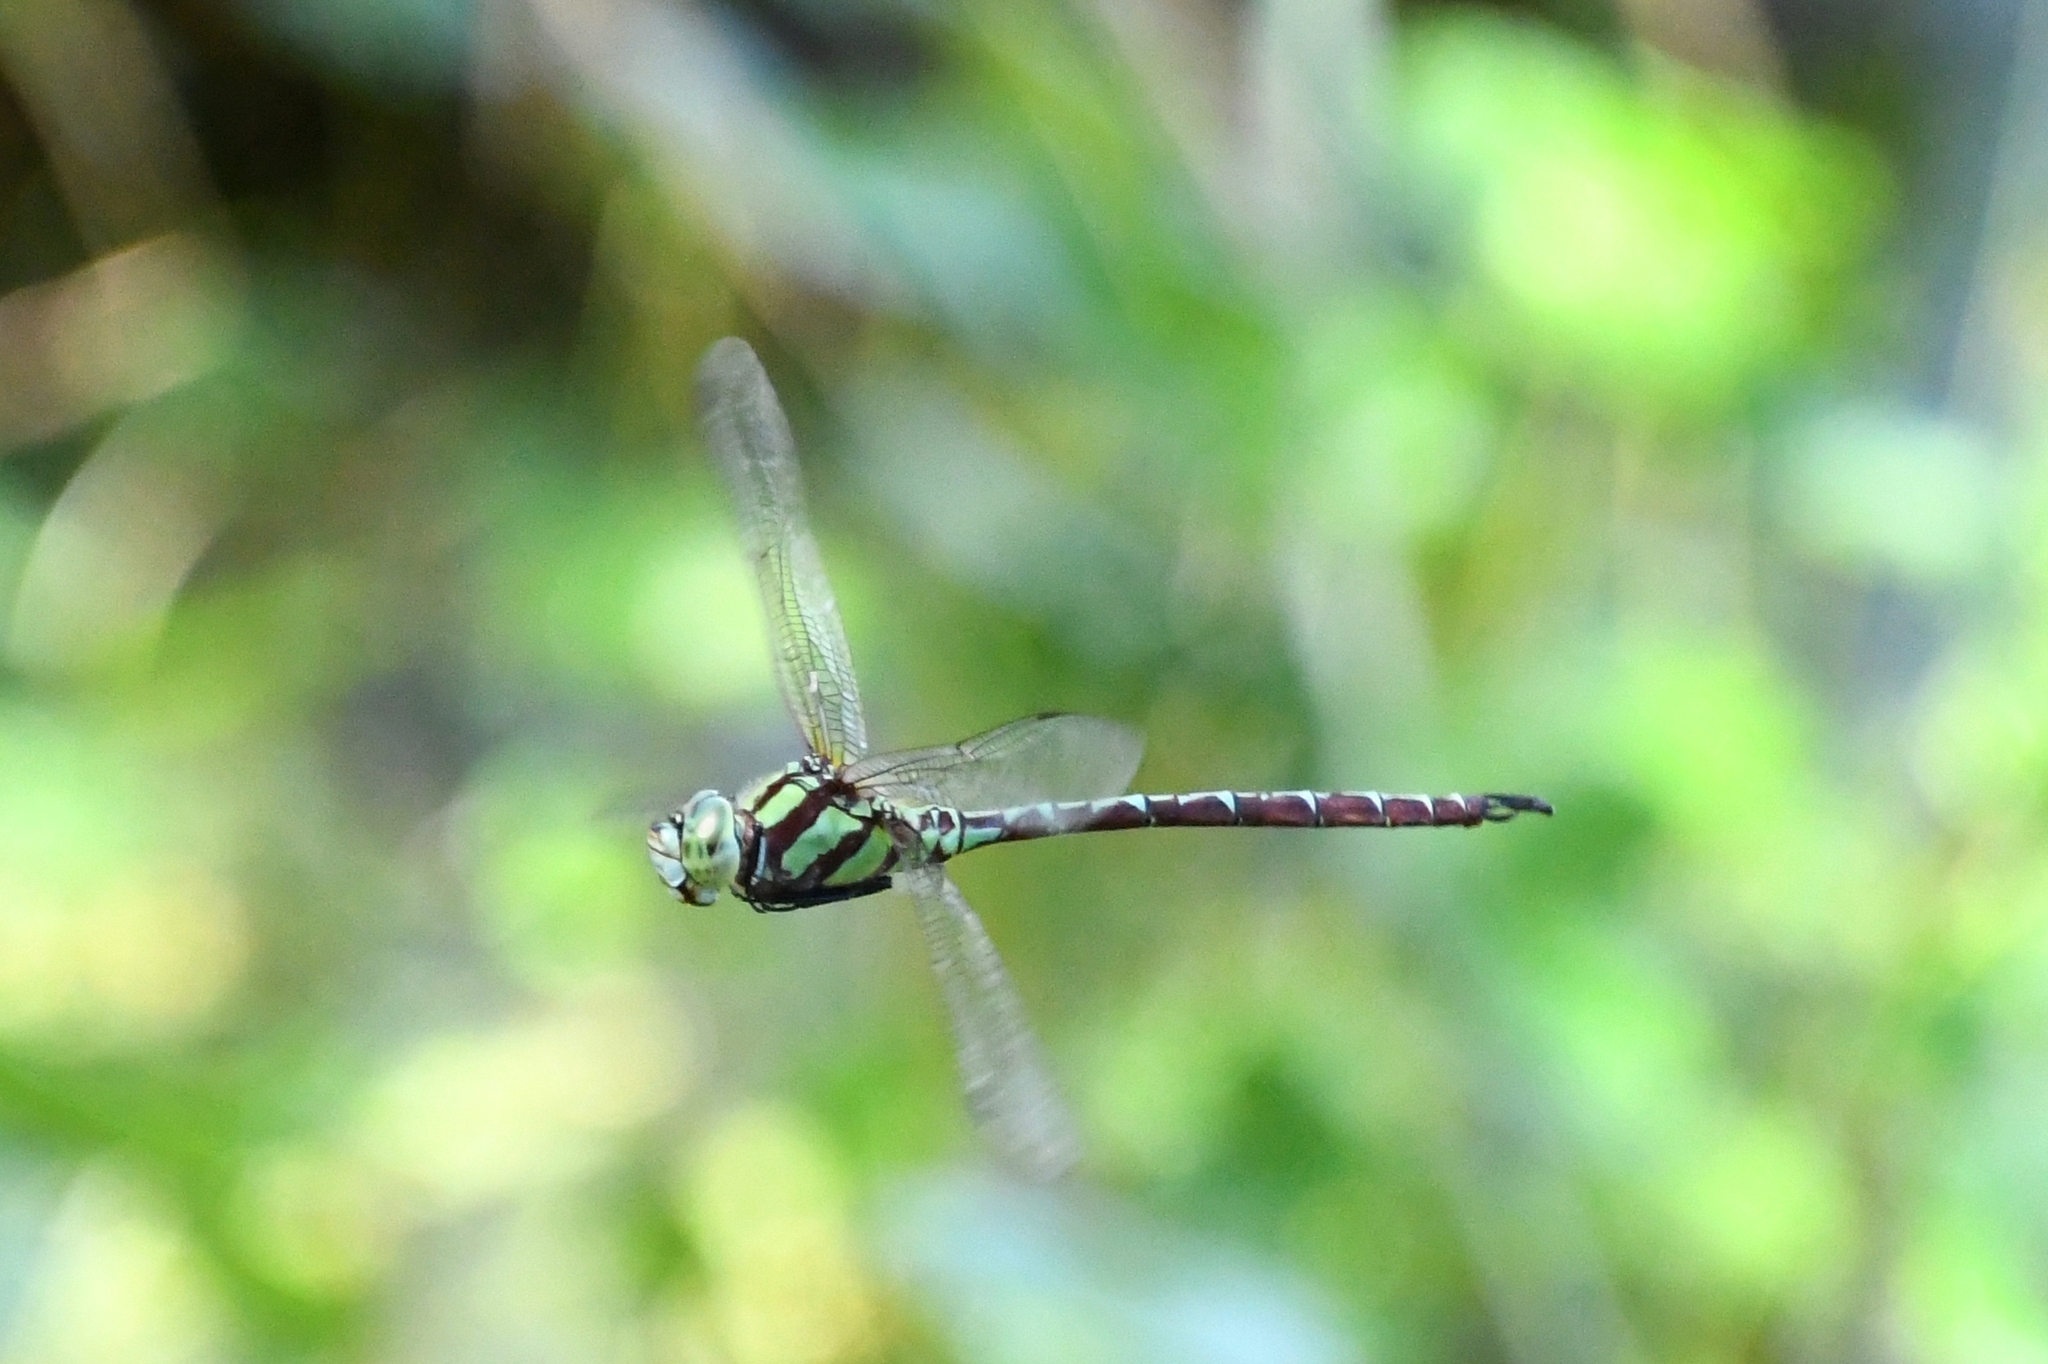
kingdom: Animalia
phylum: Arthropoda
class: Insecta
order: Odonata
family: Aeshnidae
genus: Remartinia
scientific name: Remartinia luteipennis
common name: Malachite darner
